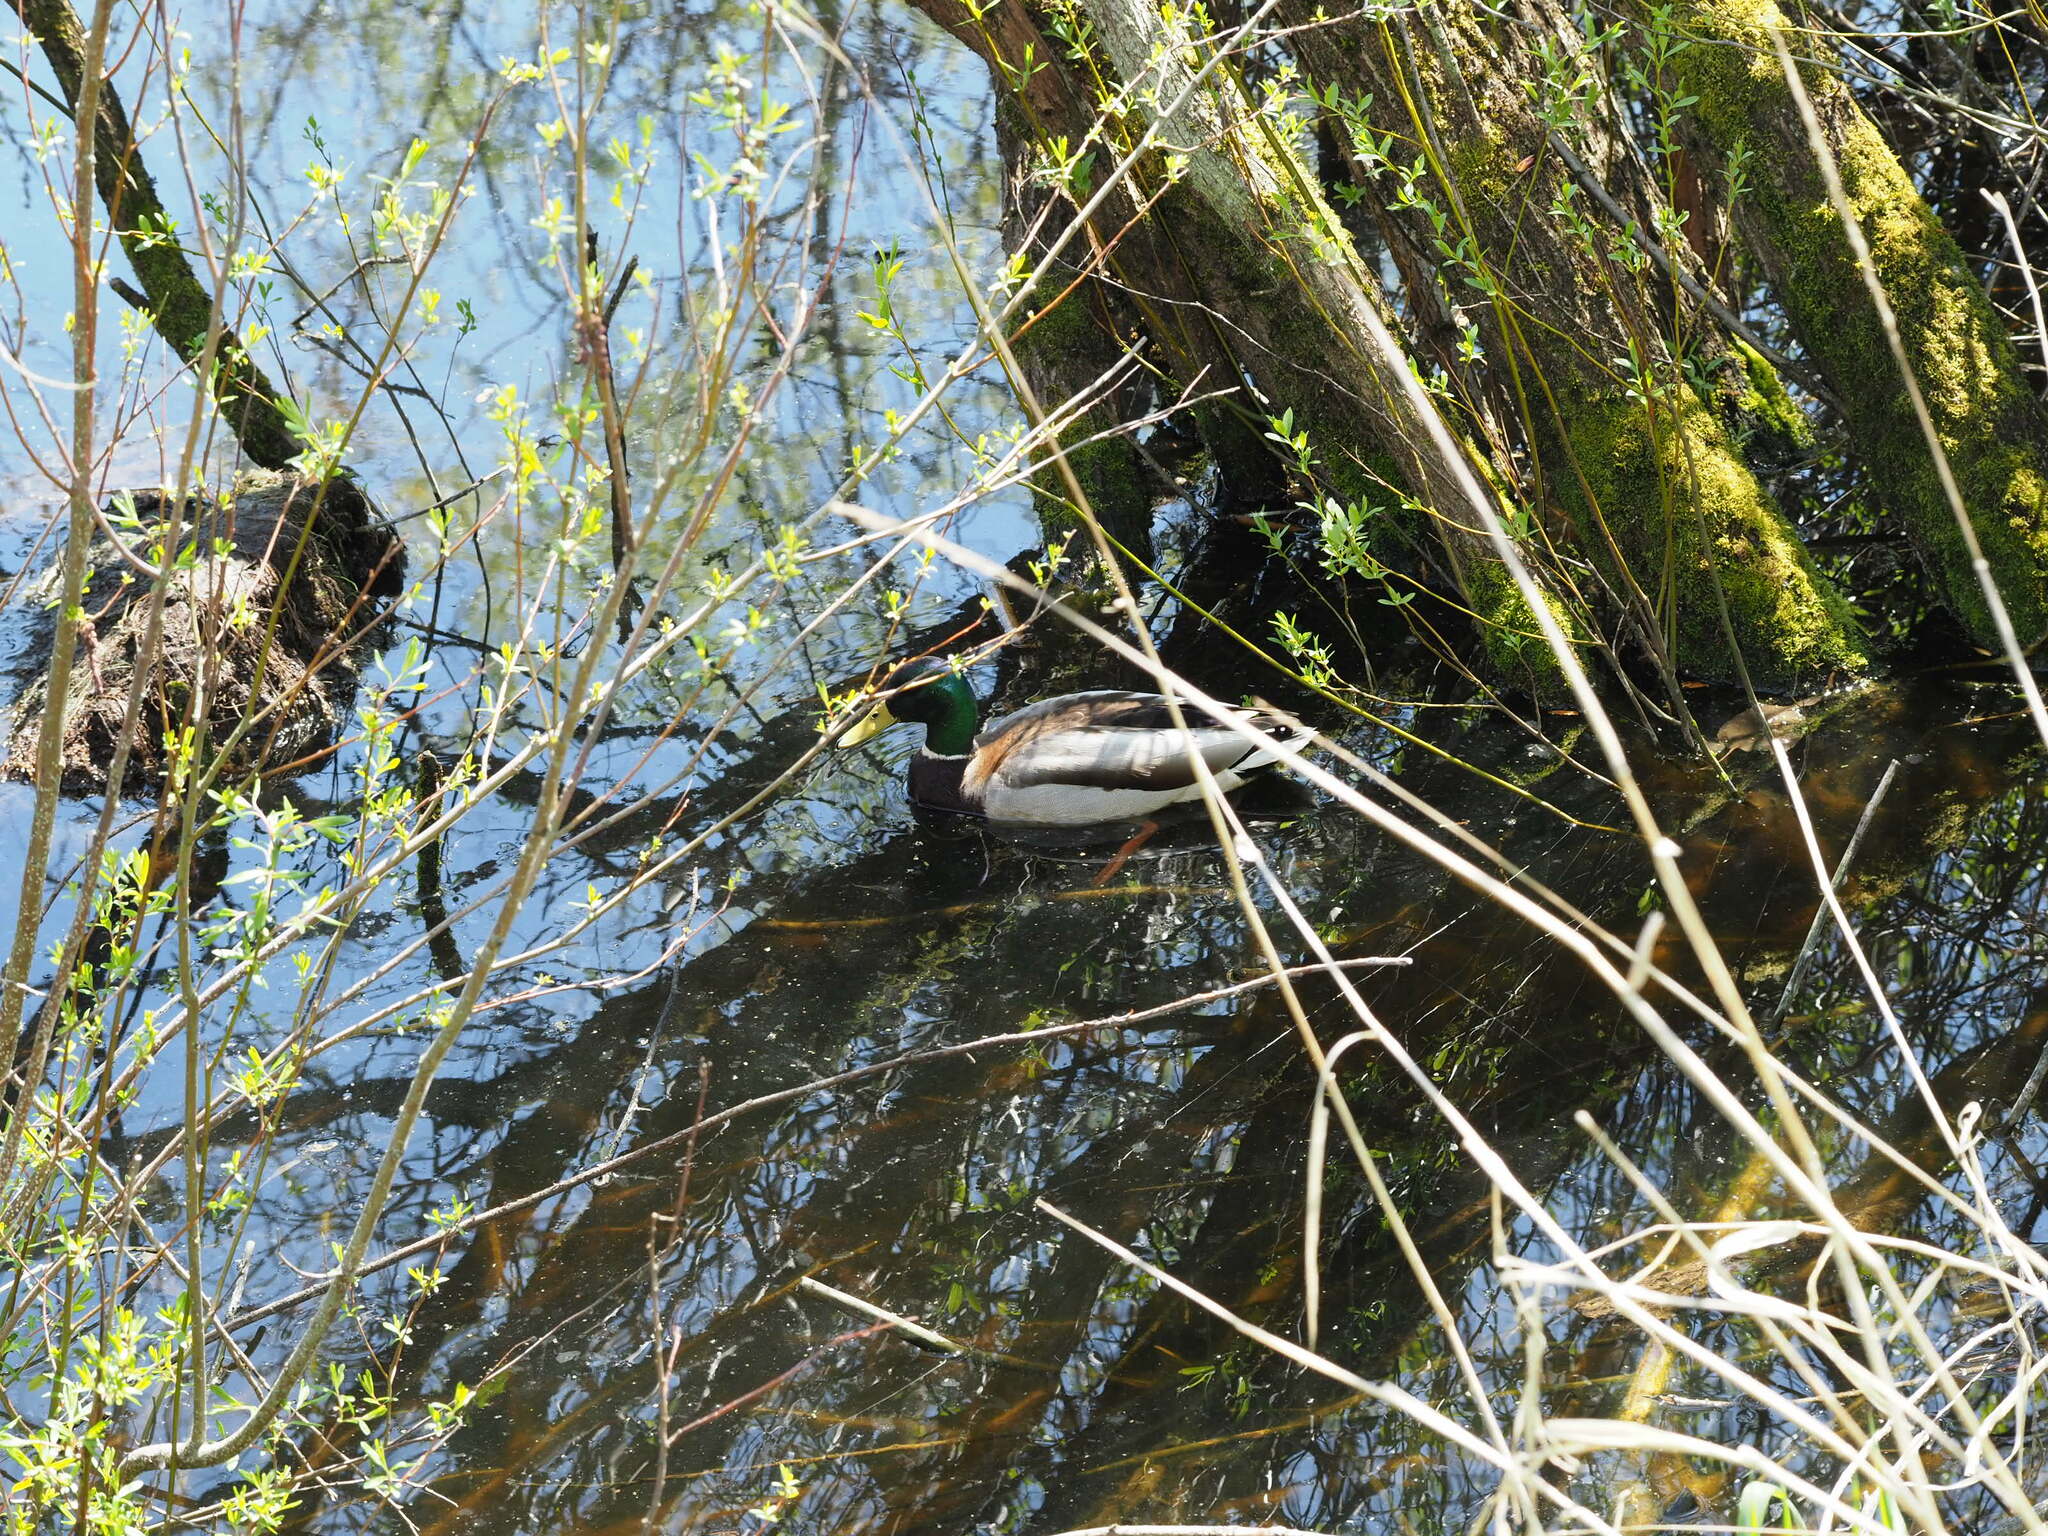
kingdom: Animalia
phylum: Chordata
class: Aves
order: Anseriformes
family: Anatidae
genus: Anas
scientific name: Anas platyrhynchos
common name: Mallard
